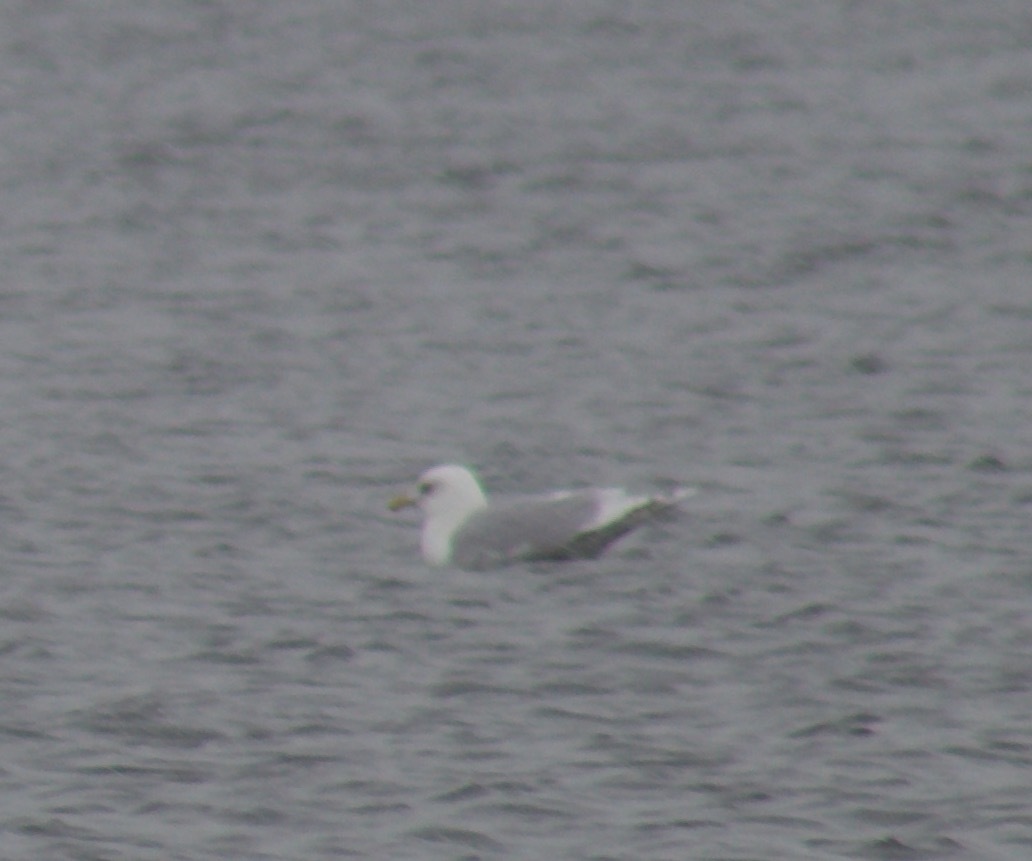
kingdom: Animalia
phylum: Chordata
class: Aves
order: Charadriiformes
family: Laridae
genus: Larus
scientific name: Larus glaucoides
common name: Iceland gull
